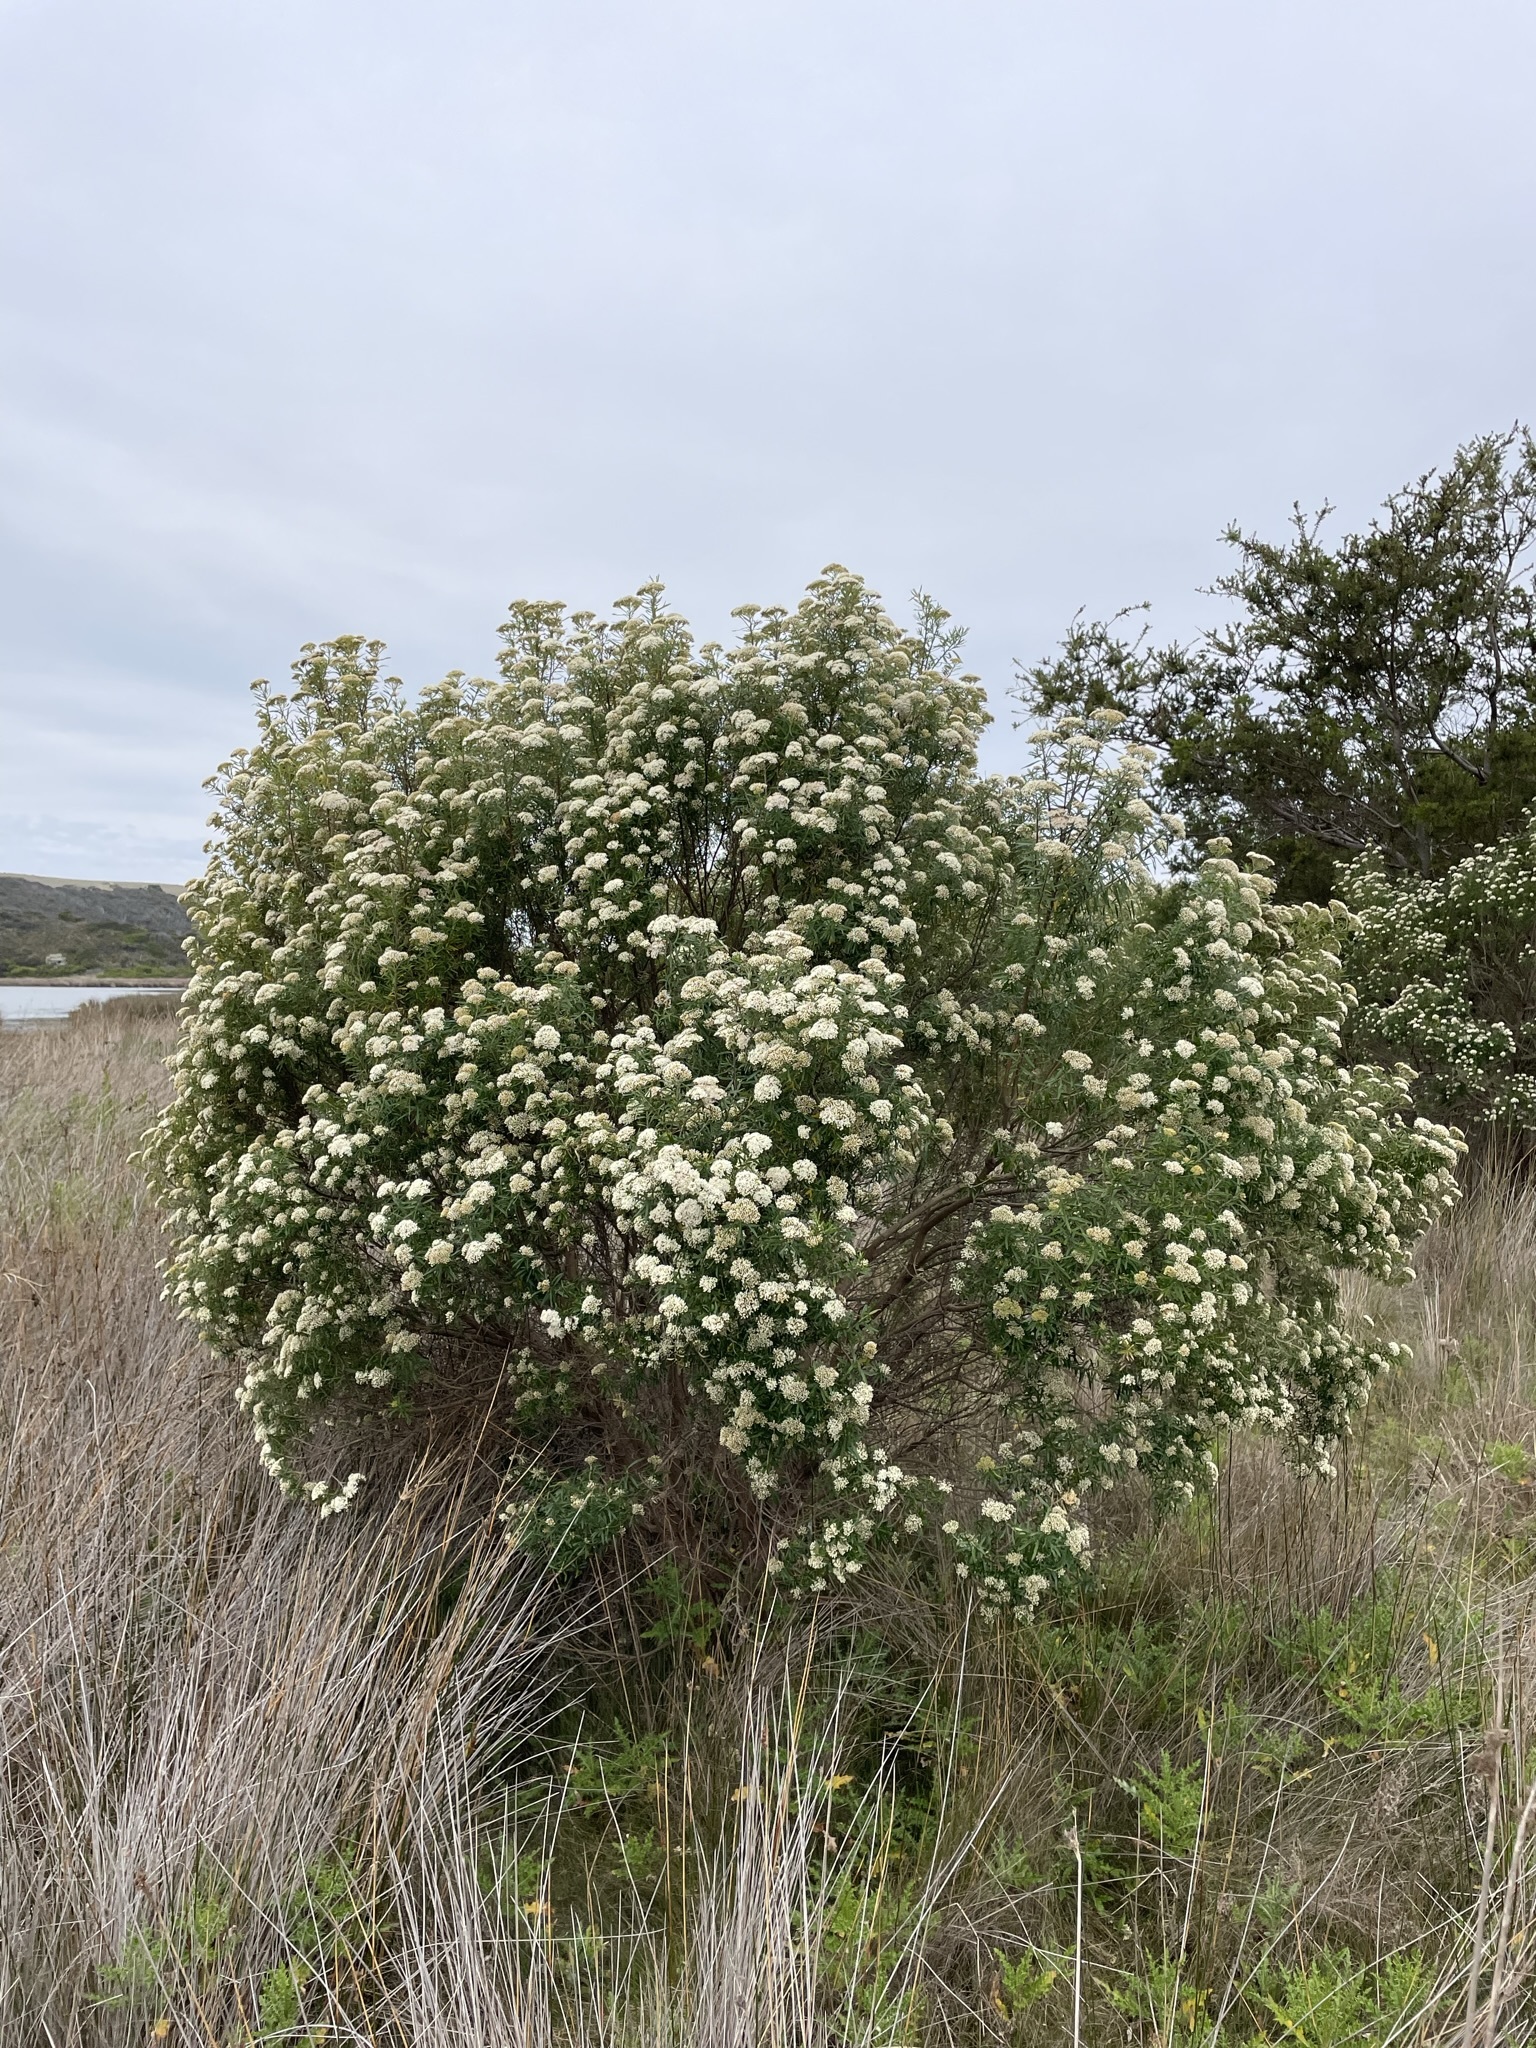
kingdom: Plantae
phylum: Tracheophyta
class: Magnoliopsida
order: Asterales
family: Asteraceae
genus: Ozothamnus
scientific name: Ozothamnus ferrugineus
